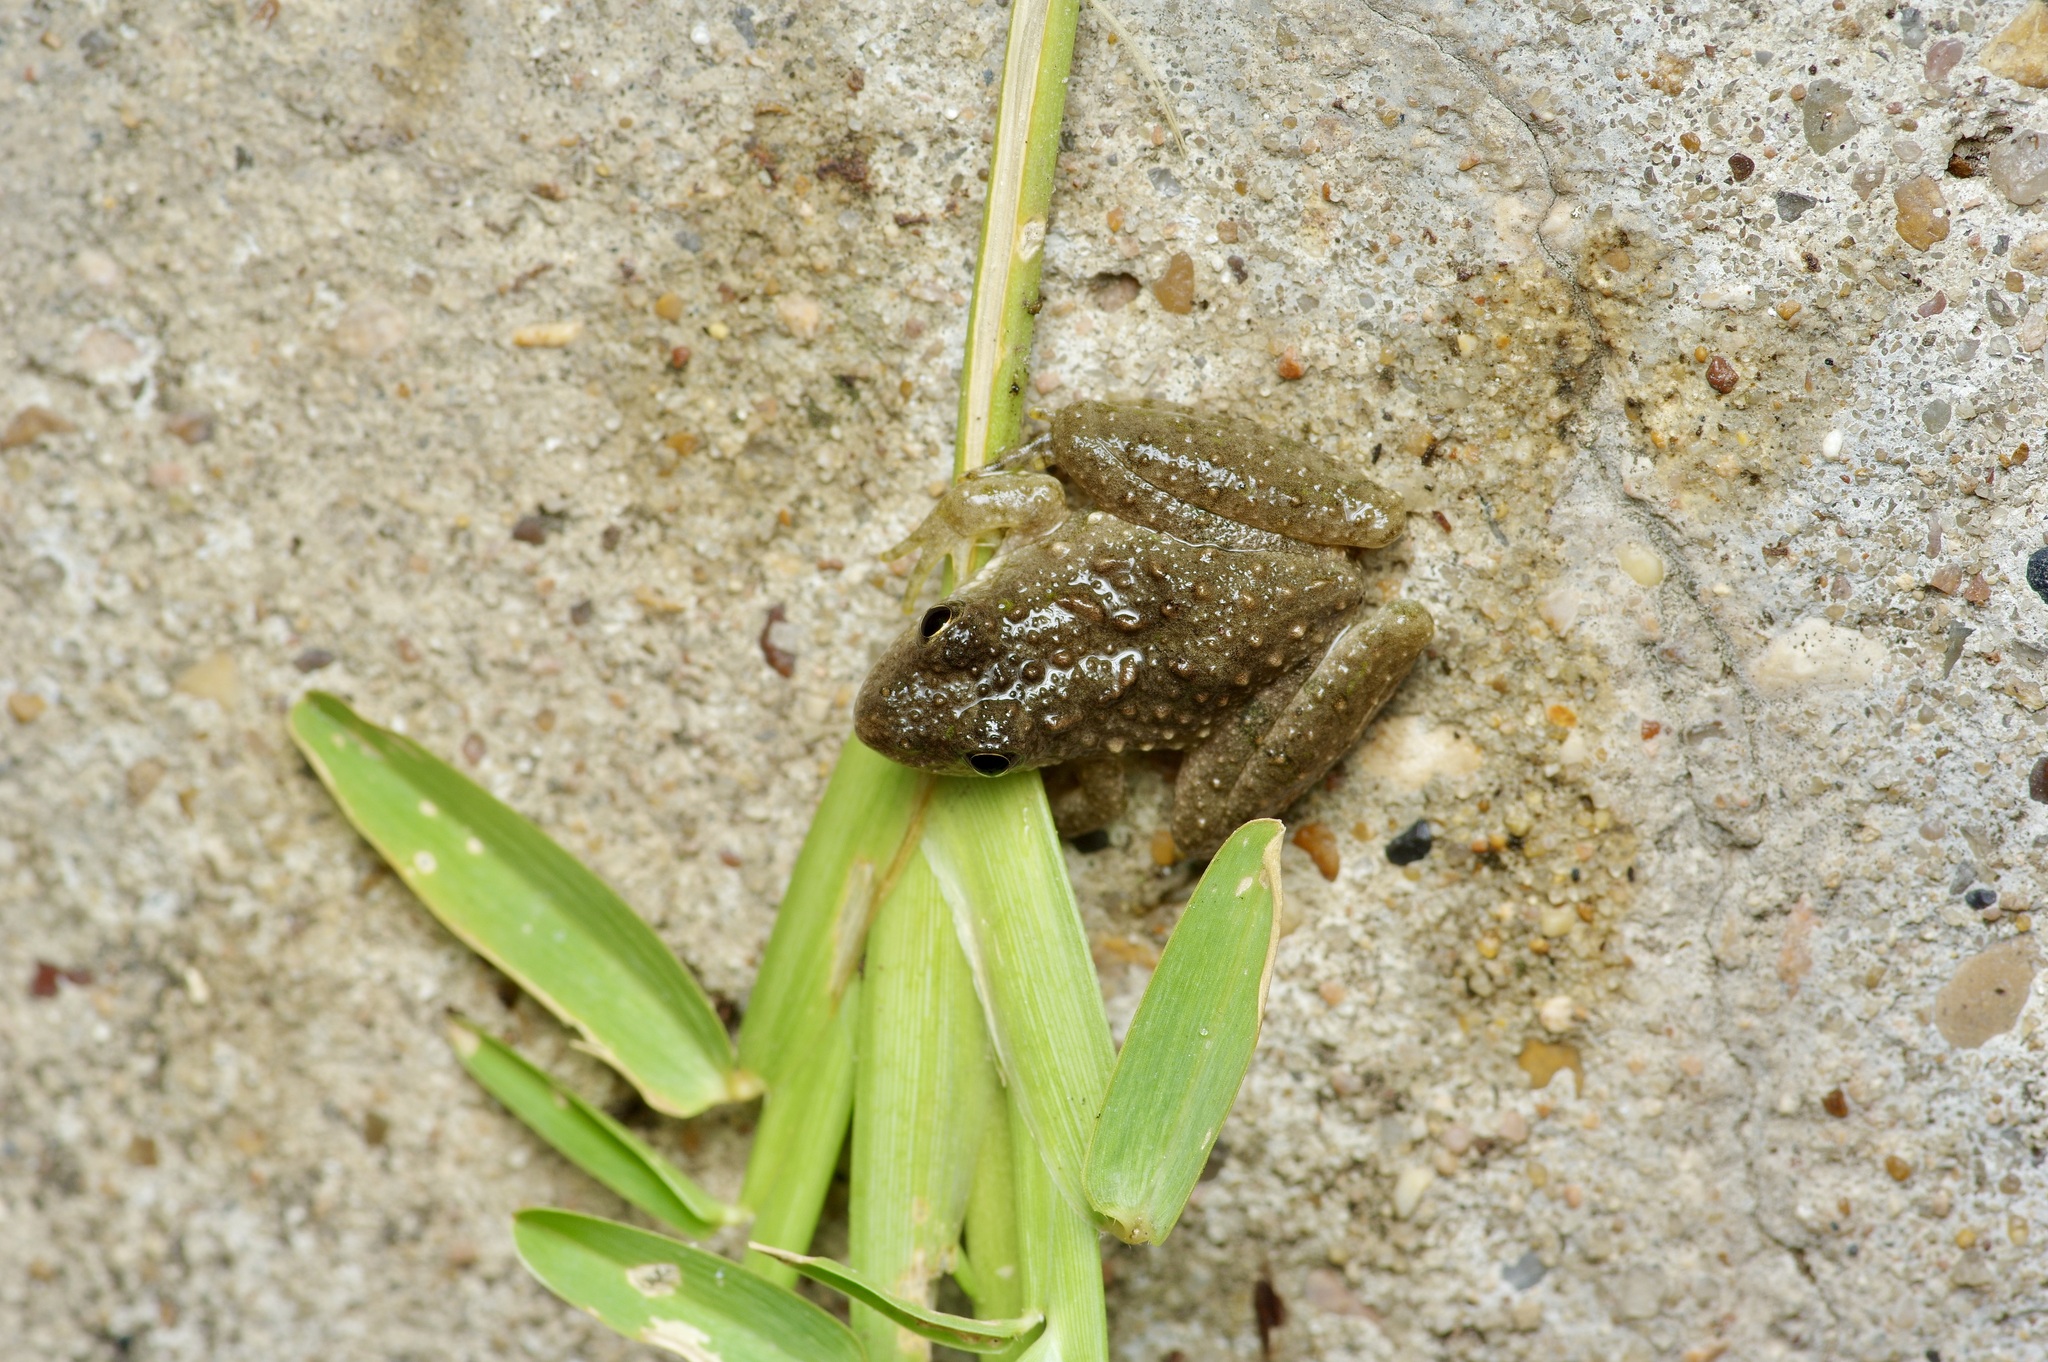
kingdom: Animalia
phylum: Chordata
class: Amphibia
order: Anura
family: Hylidae
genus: Acris
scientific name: Acris blanchardi
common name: Blanchard's cricket frog
